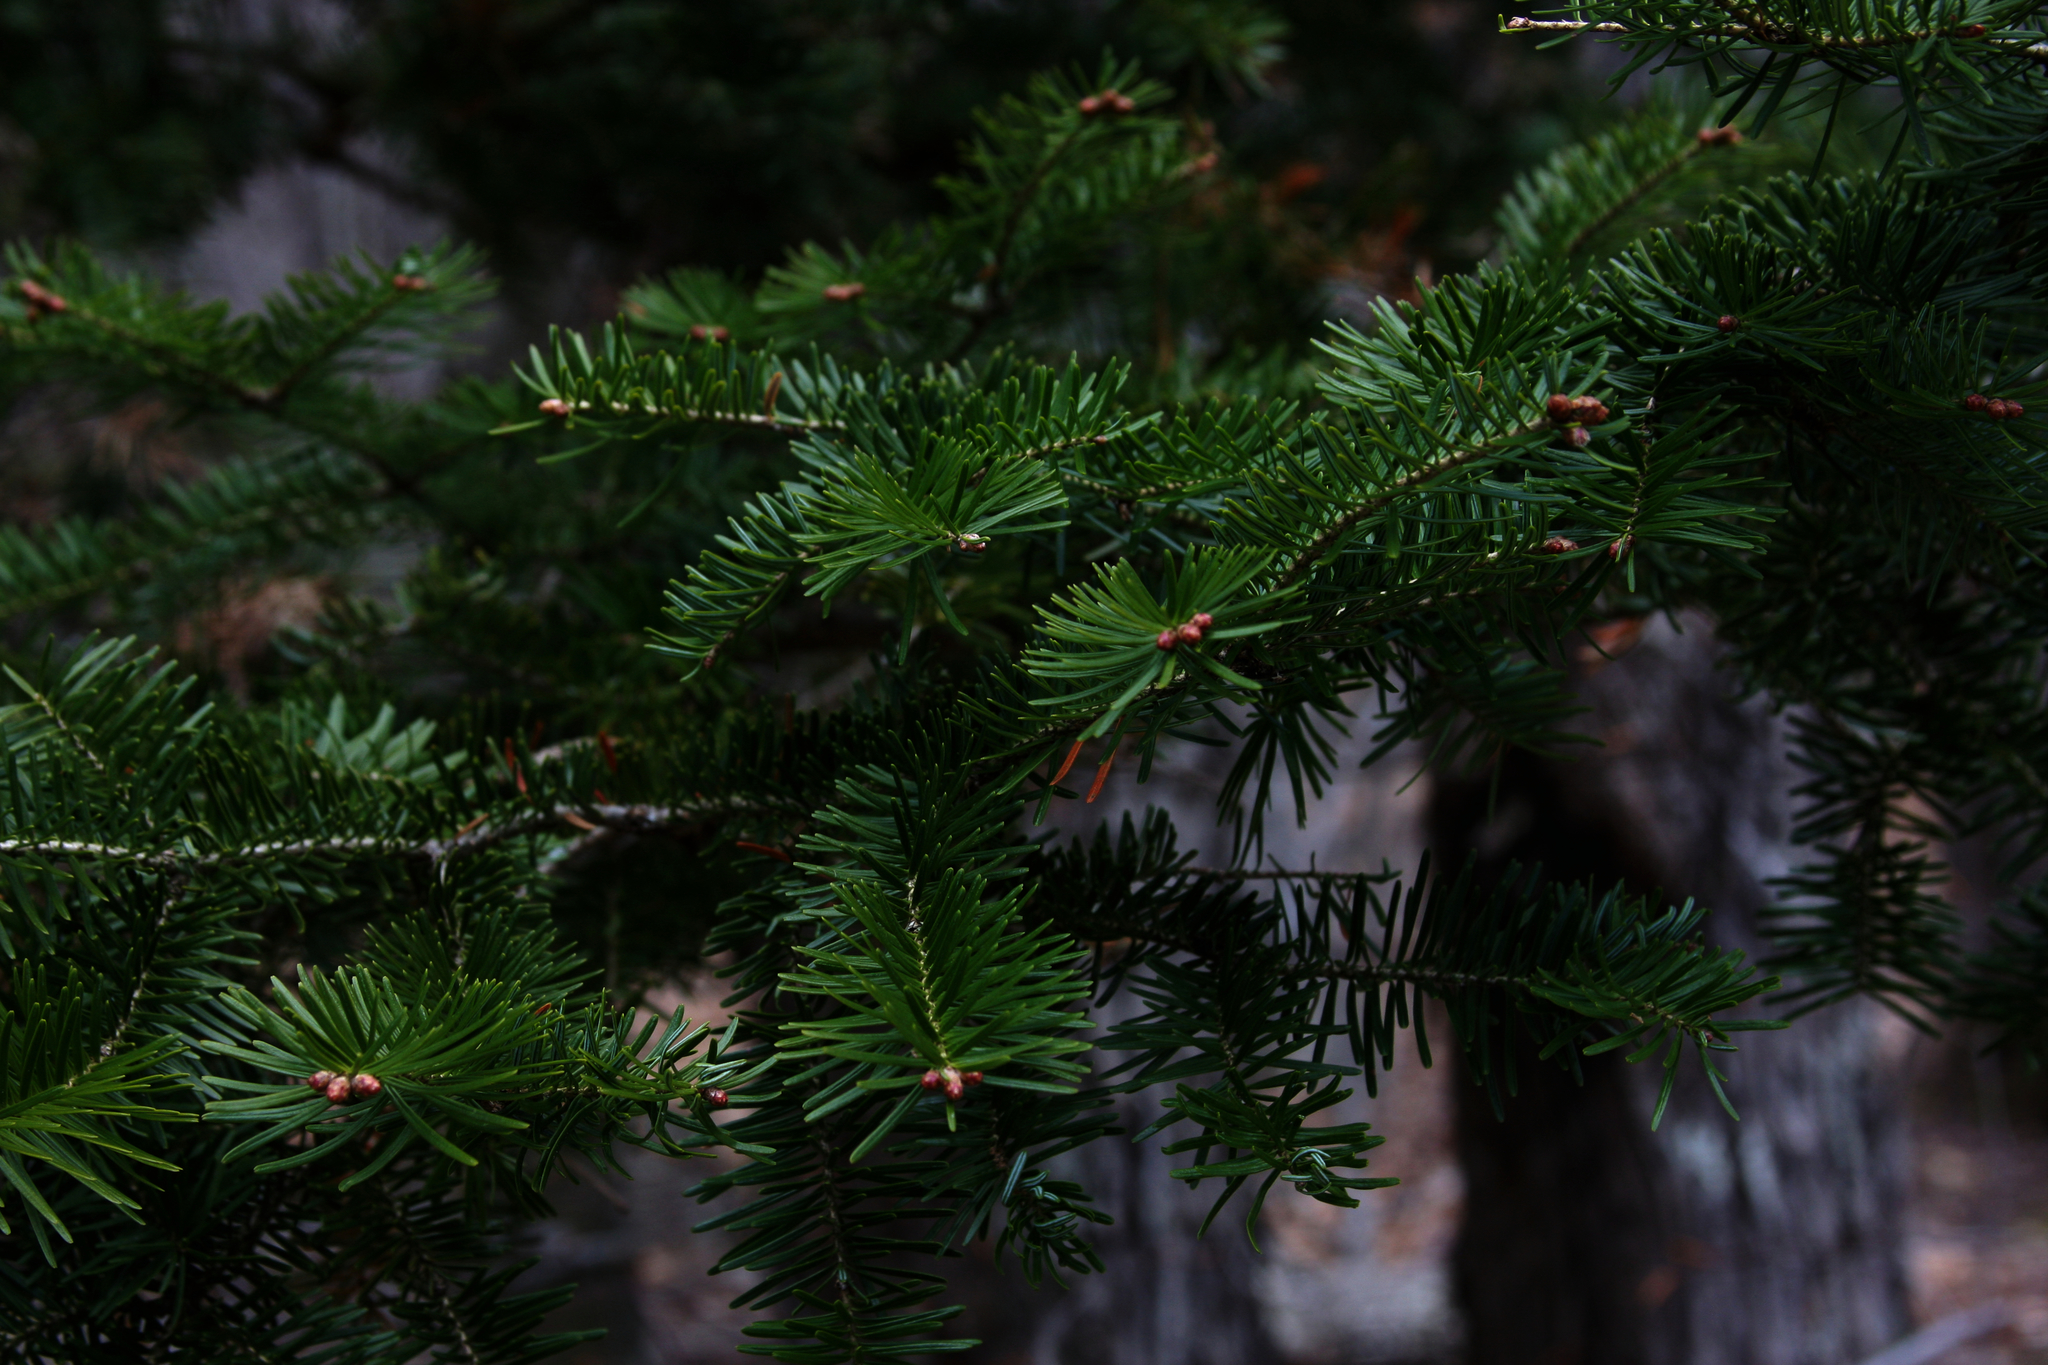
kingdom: Plantae
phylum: Tracheophyta
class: Pinopsida
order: Pinales
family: Pinaceae
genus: Abies
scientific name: Abies balsamea
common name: Balsam fir
